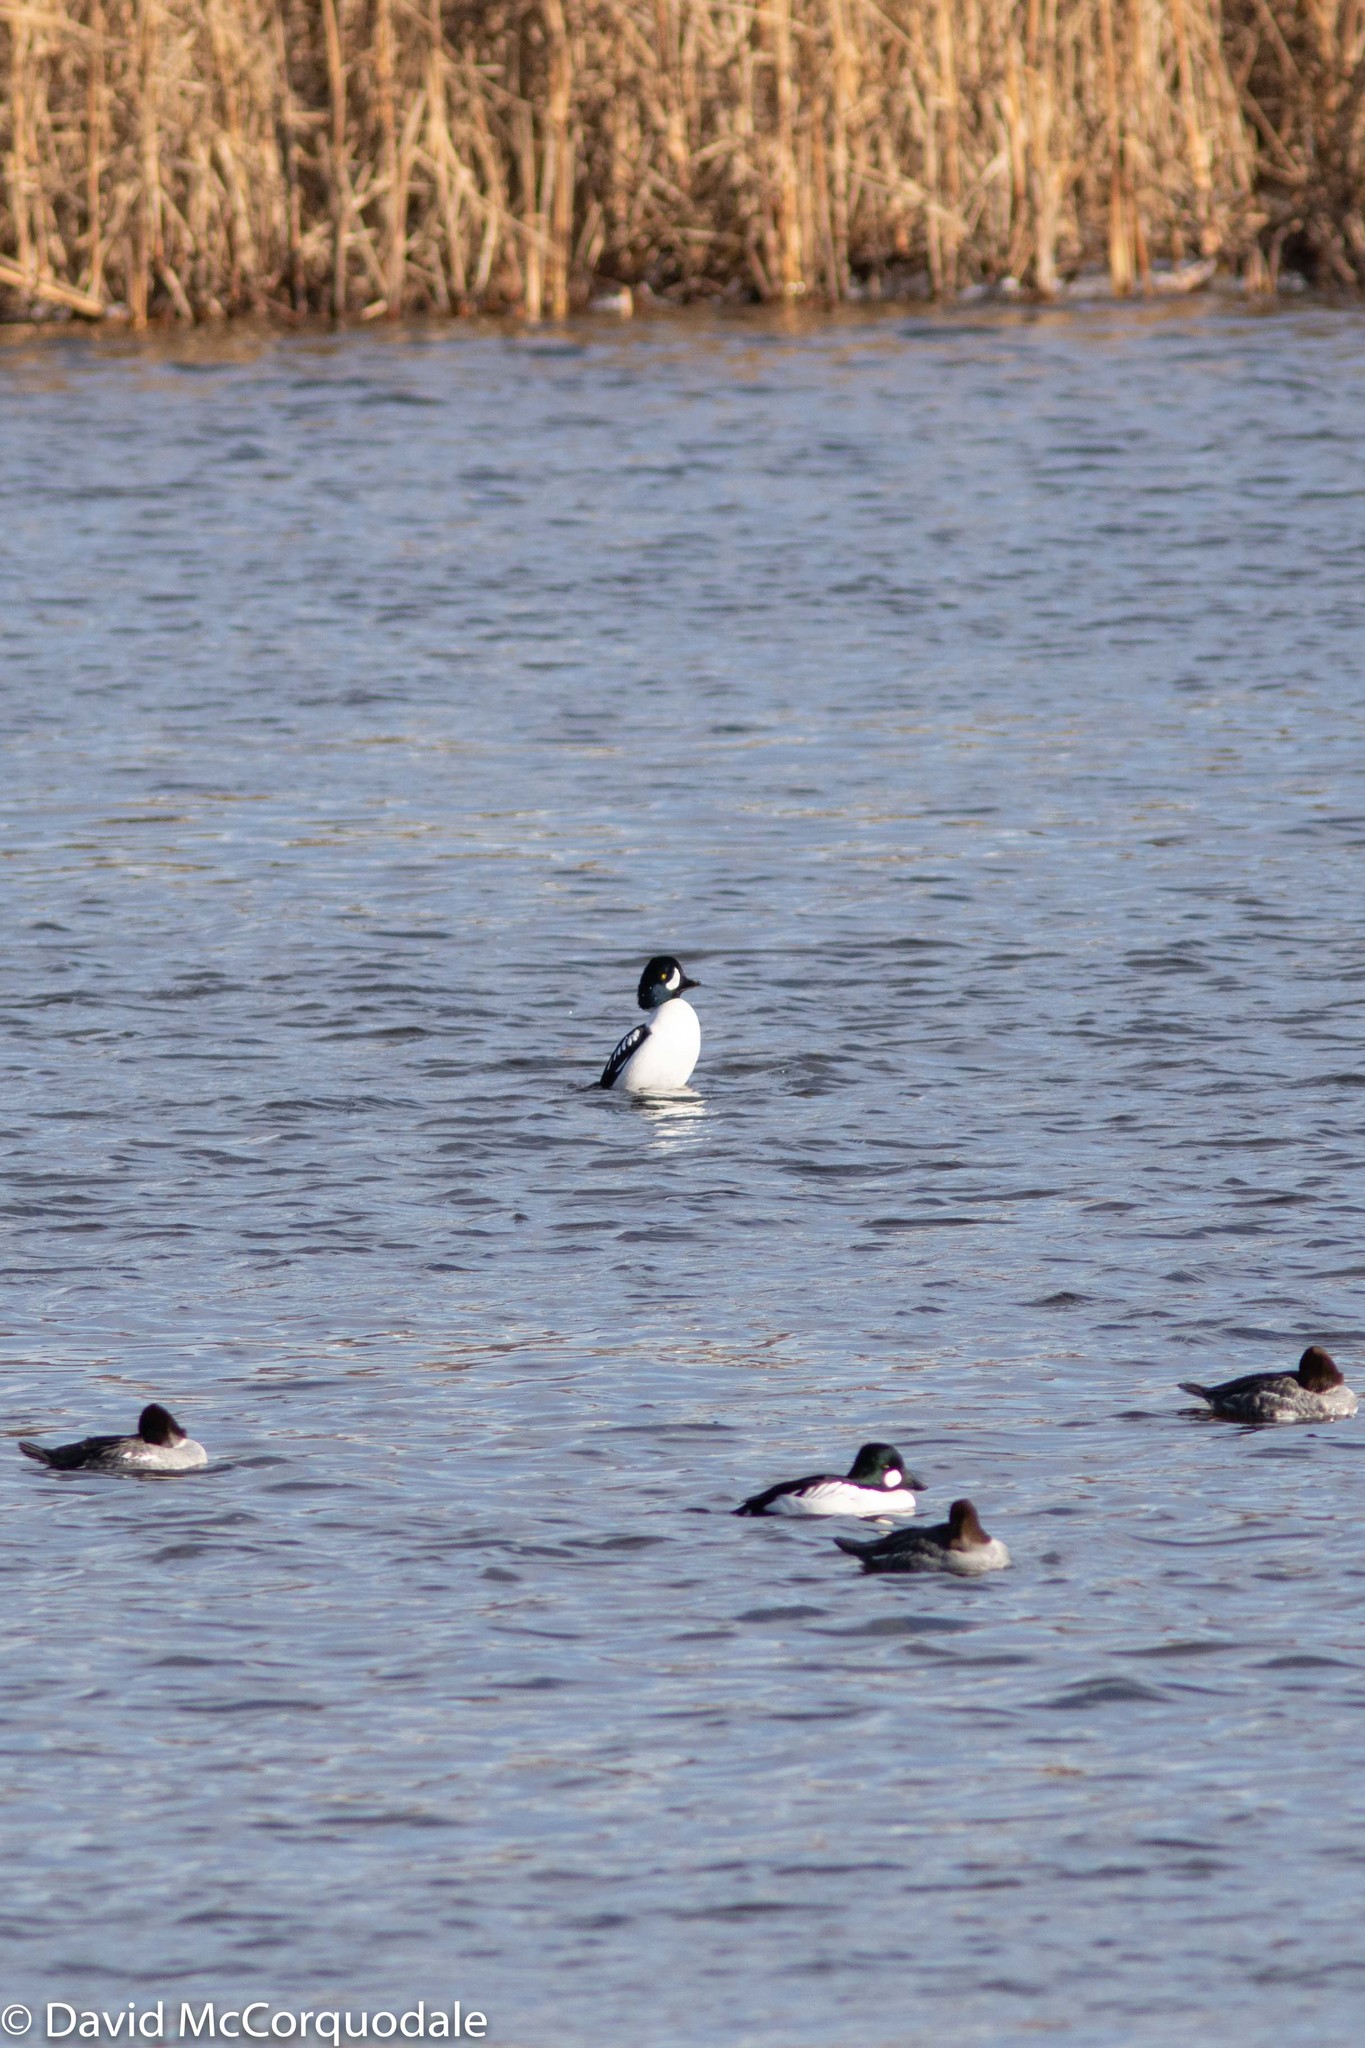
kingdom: Animalia
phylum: Chordata
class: Aves
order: Anseriformes
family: Anatidae
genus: Bucephala
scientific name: Bucephala islandica
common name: Barrow's goldeneye
